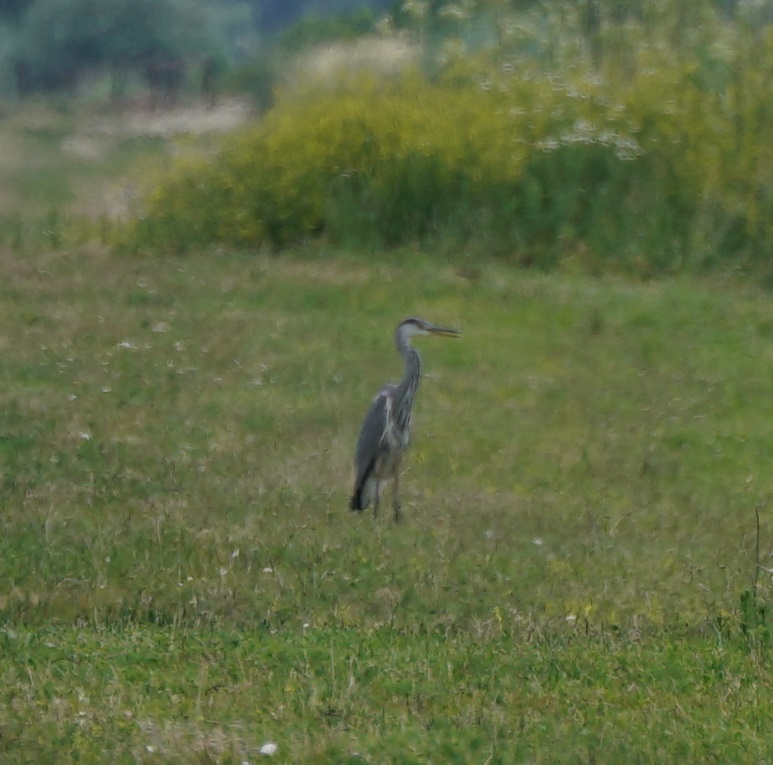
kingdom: Animalia
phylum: Chordata
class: Aves
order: Pelecaniformes
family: Ardeidae
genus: Ardea
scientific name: Ardea cinerea
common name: Grey heron
